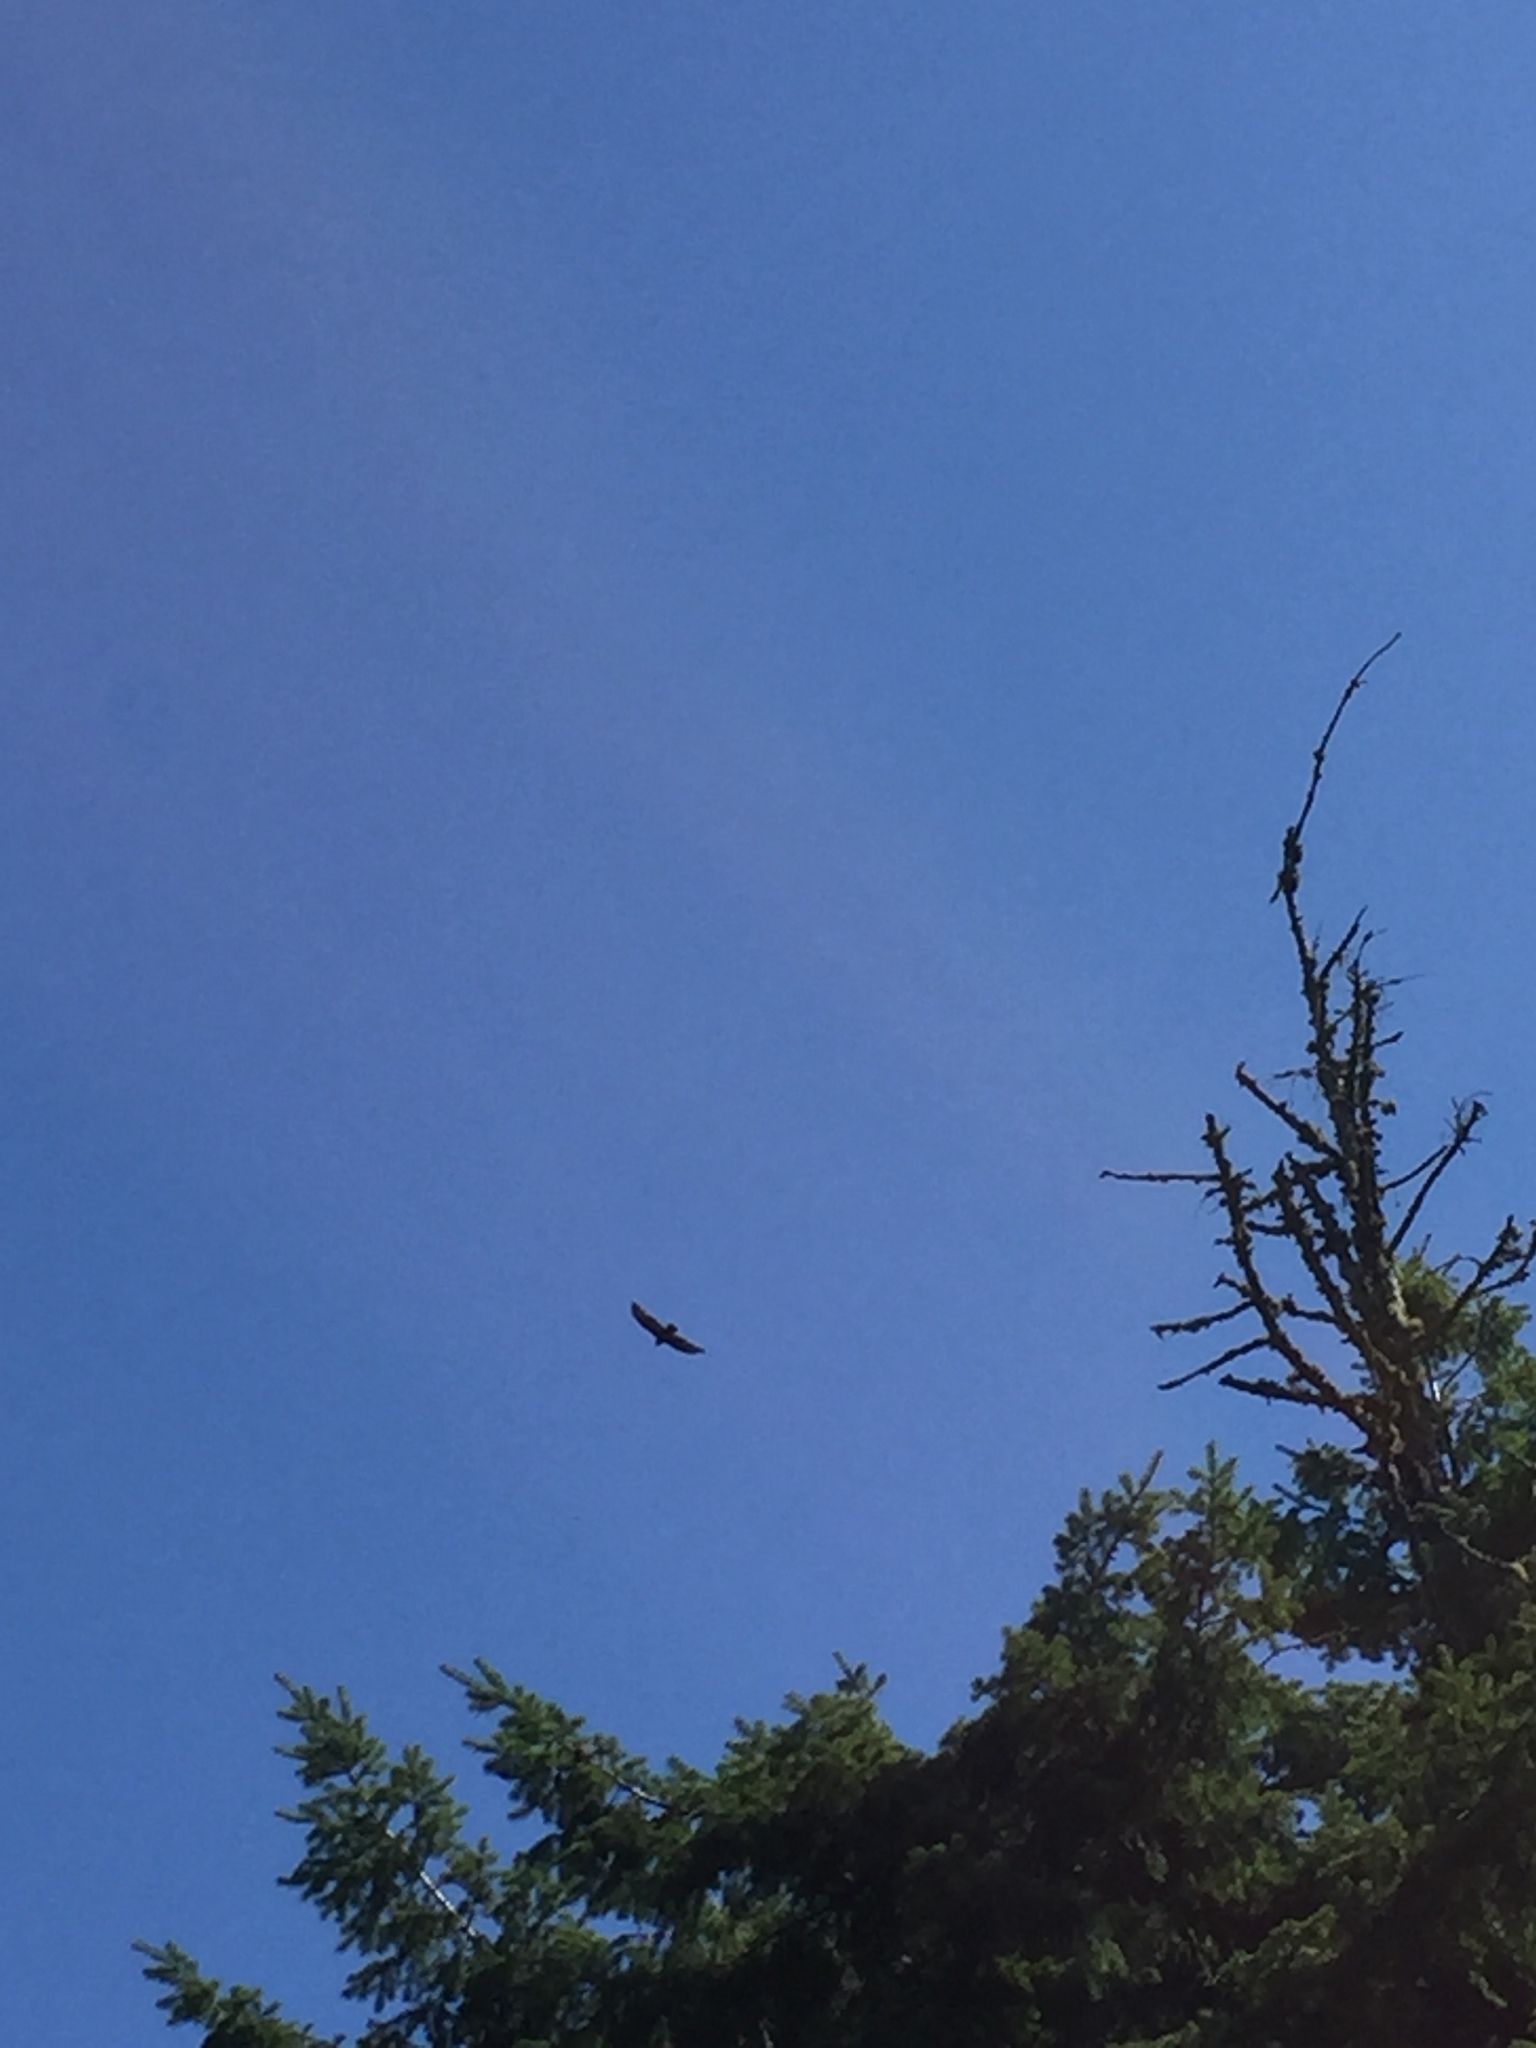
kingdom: Animalia
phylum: Chordata
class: Aves
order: Accipitriformes
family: Cathartidae
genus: Cathartes
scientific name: Cathartes aura
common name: Turkey vulture
